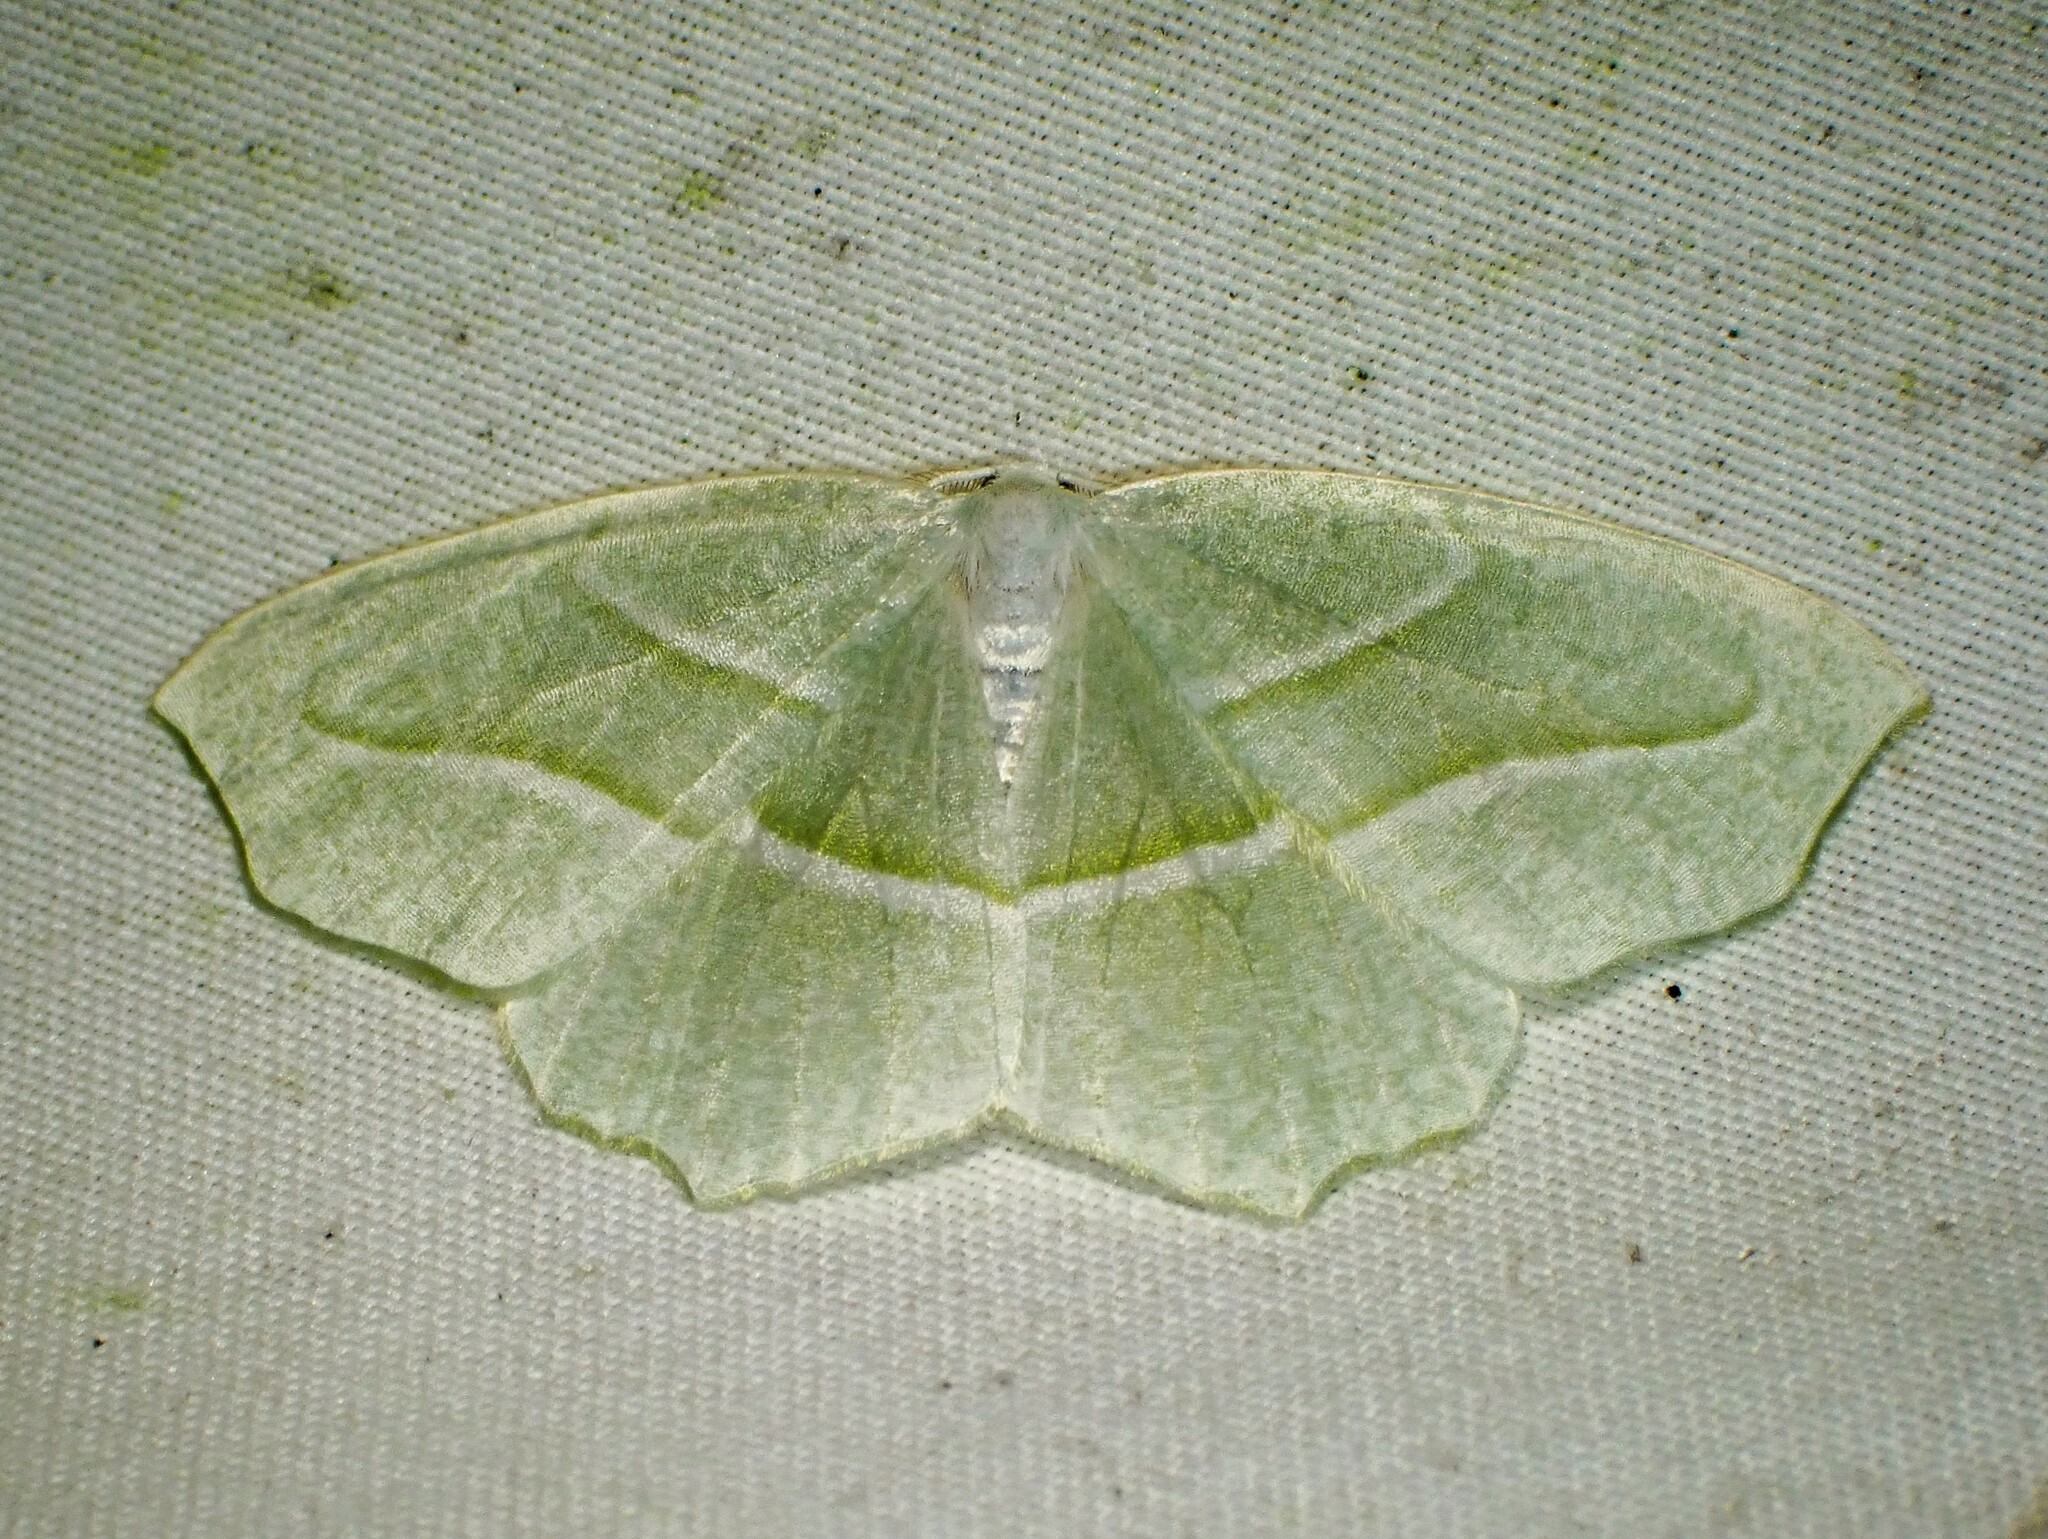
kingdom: Animalia
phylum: Arthropoda
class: Insecta
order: Lepidoptera
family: Geometridae
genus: Campaea
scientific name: Campaea perlata
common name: Fringed looper
